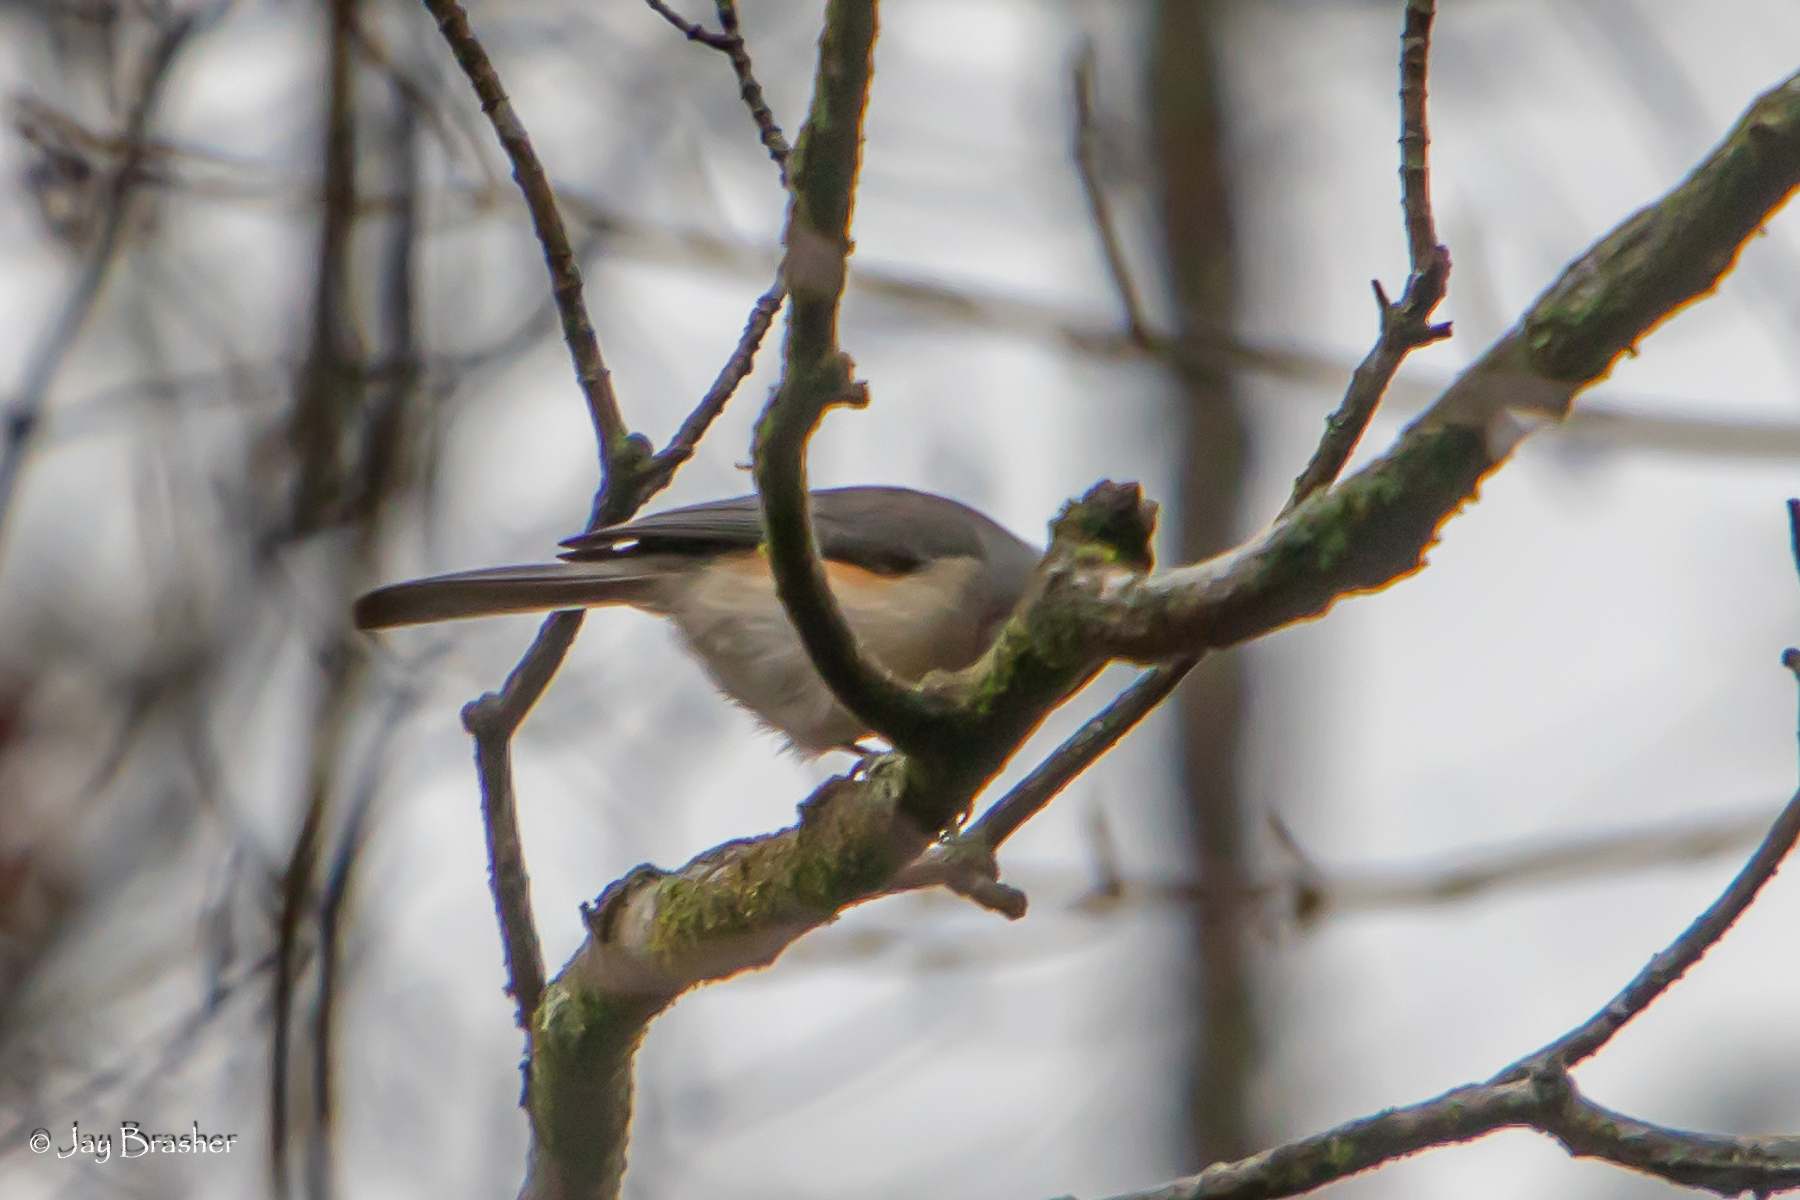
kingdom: Animalia
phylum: Chordata
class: Aves
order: Passeriformes
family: Paridae
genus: Baeolophus
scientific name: Baeolophus bicolor
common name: Tufted titmouse
